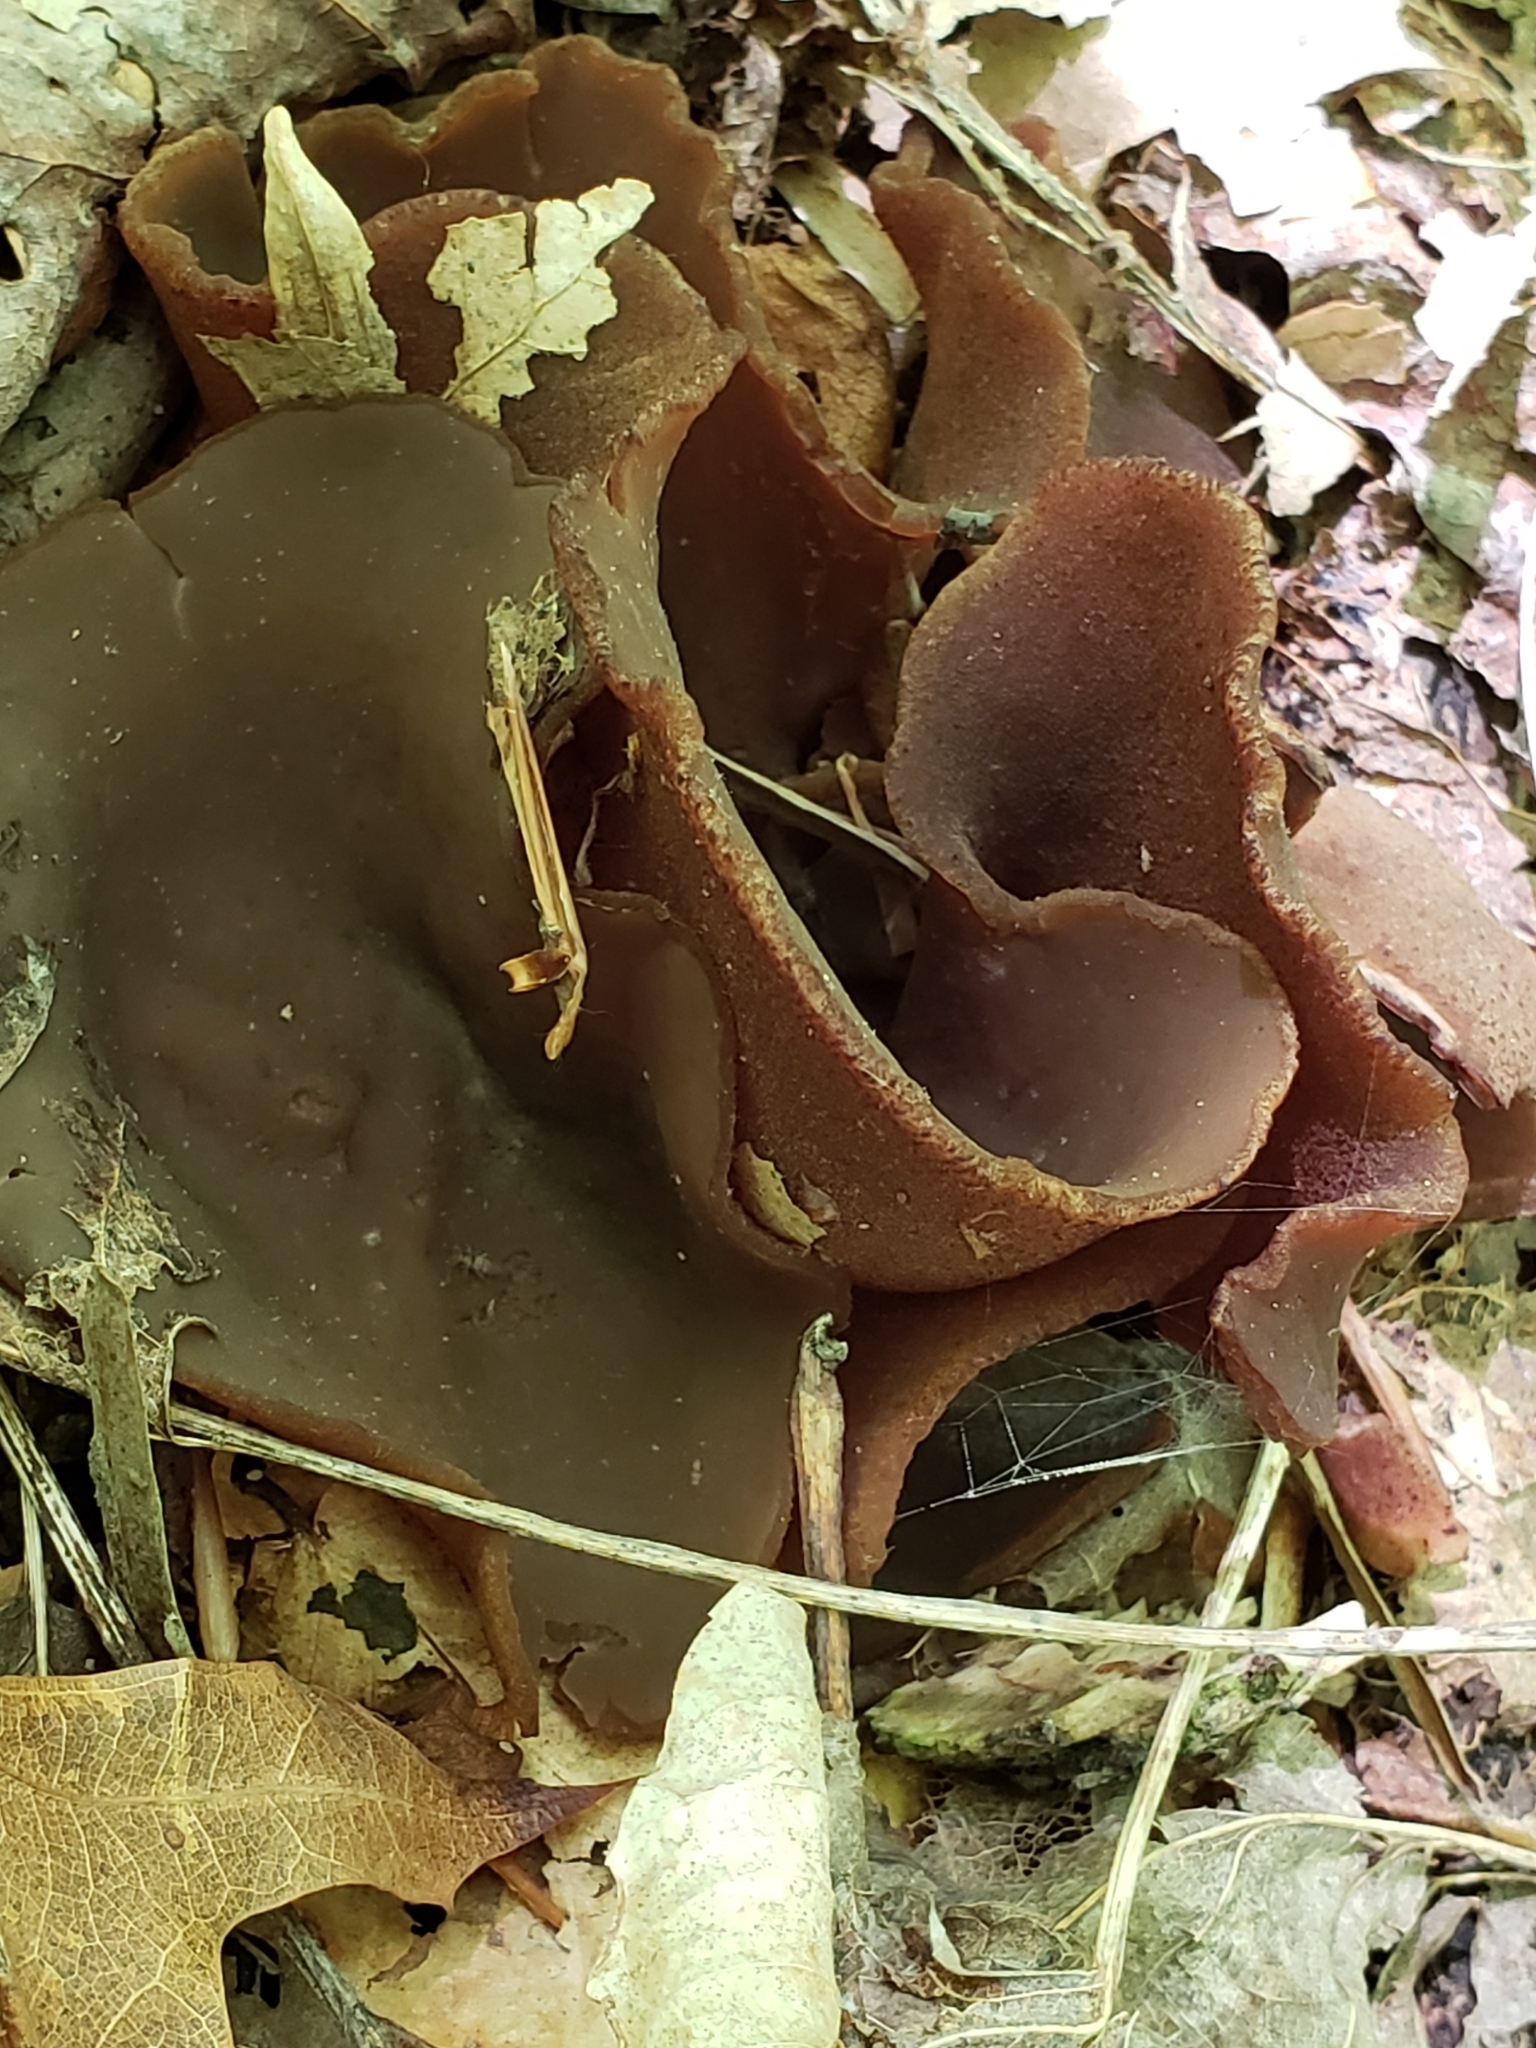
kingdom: Fungi
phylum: Ascomycota
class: Pezizomycetes
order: Pezizales
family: Pezizaceae
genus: Phylloscypha
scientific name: Phylloscypha phyllogena
